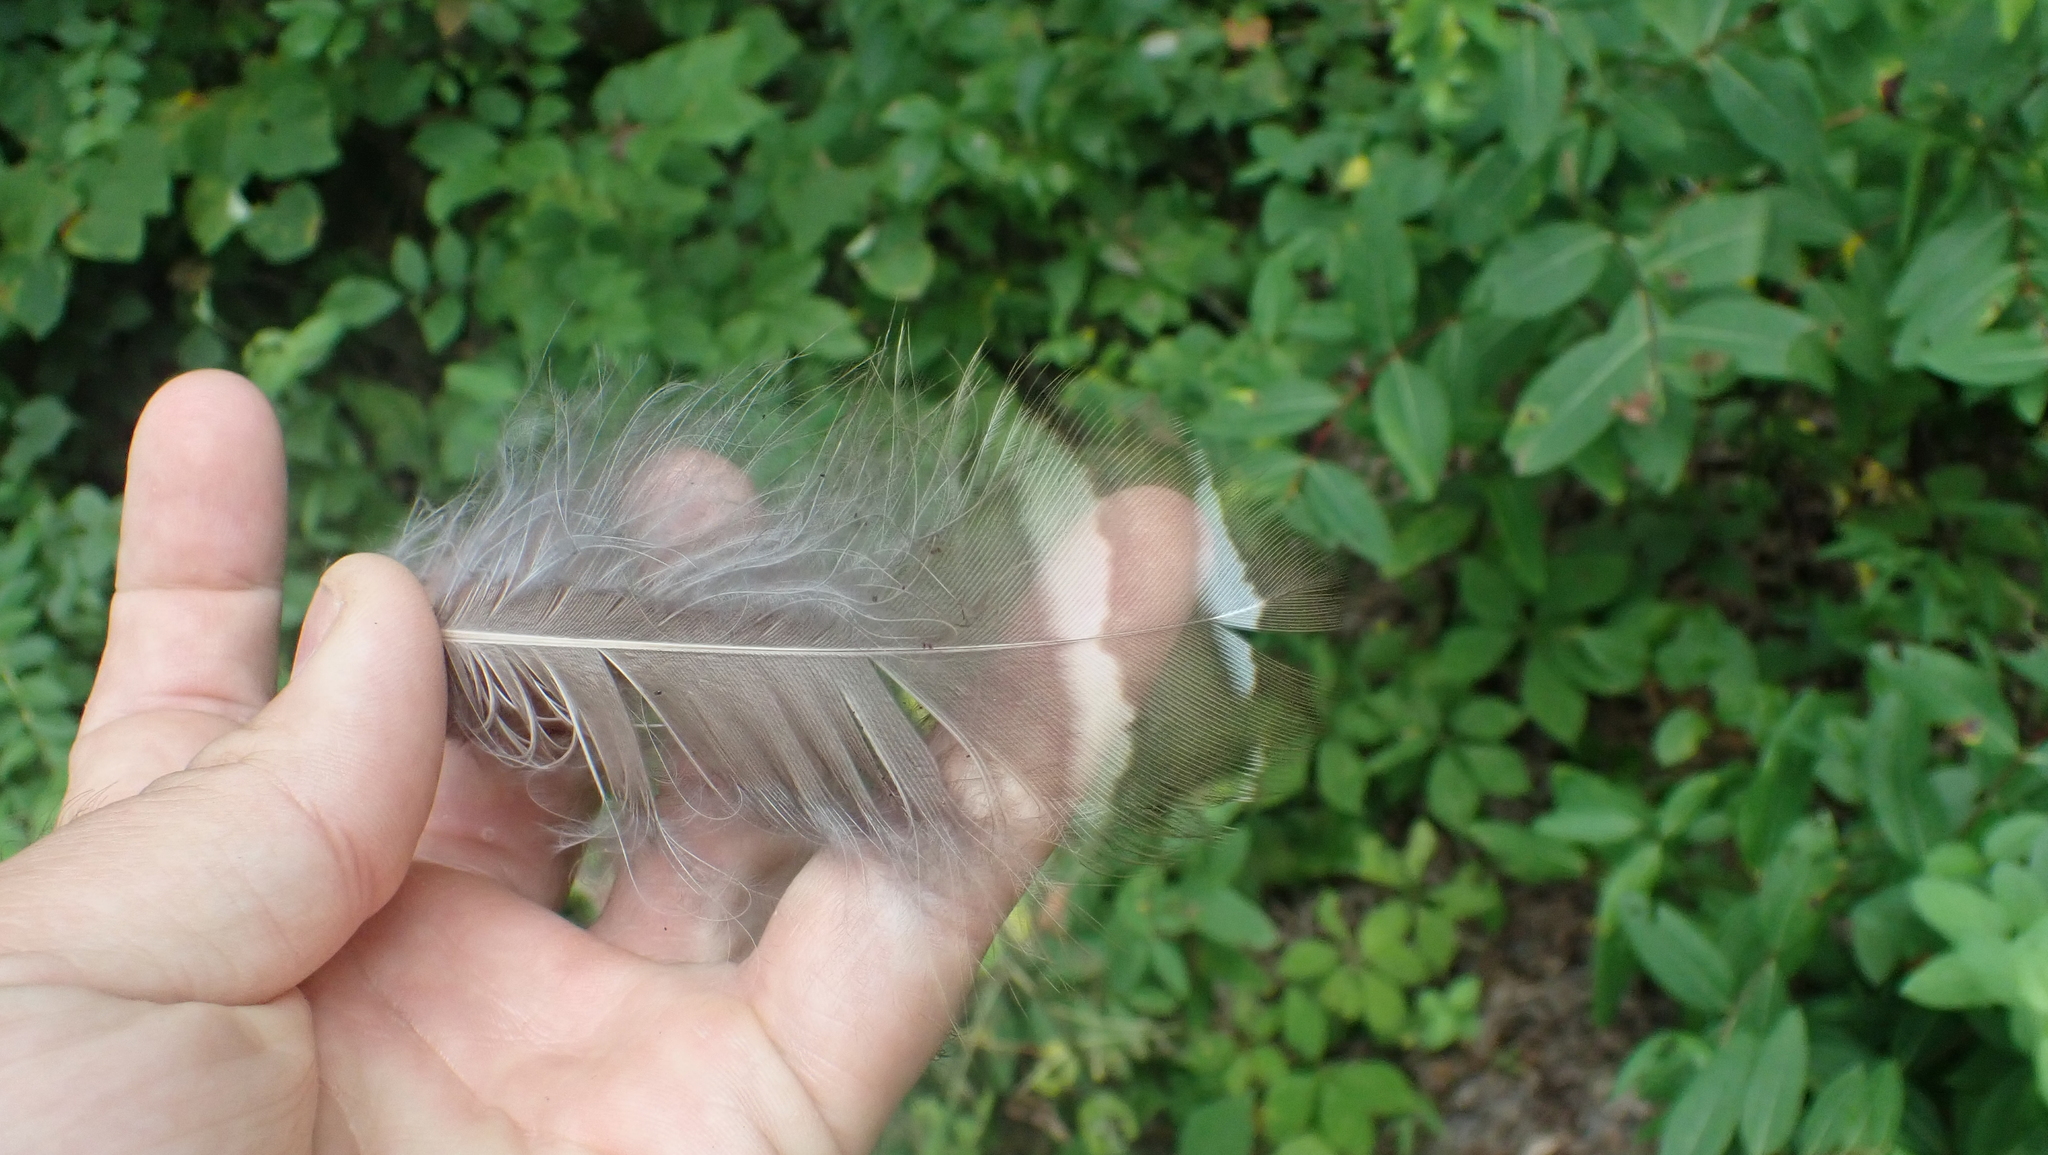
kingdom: Animalia
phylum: Chordata
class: Aves
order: Strigiformes
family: Strigidae
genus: Strix
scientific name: Strix varia
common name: Barred owl
